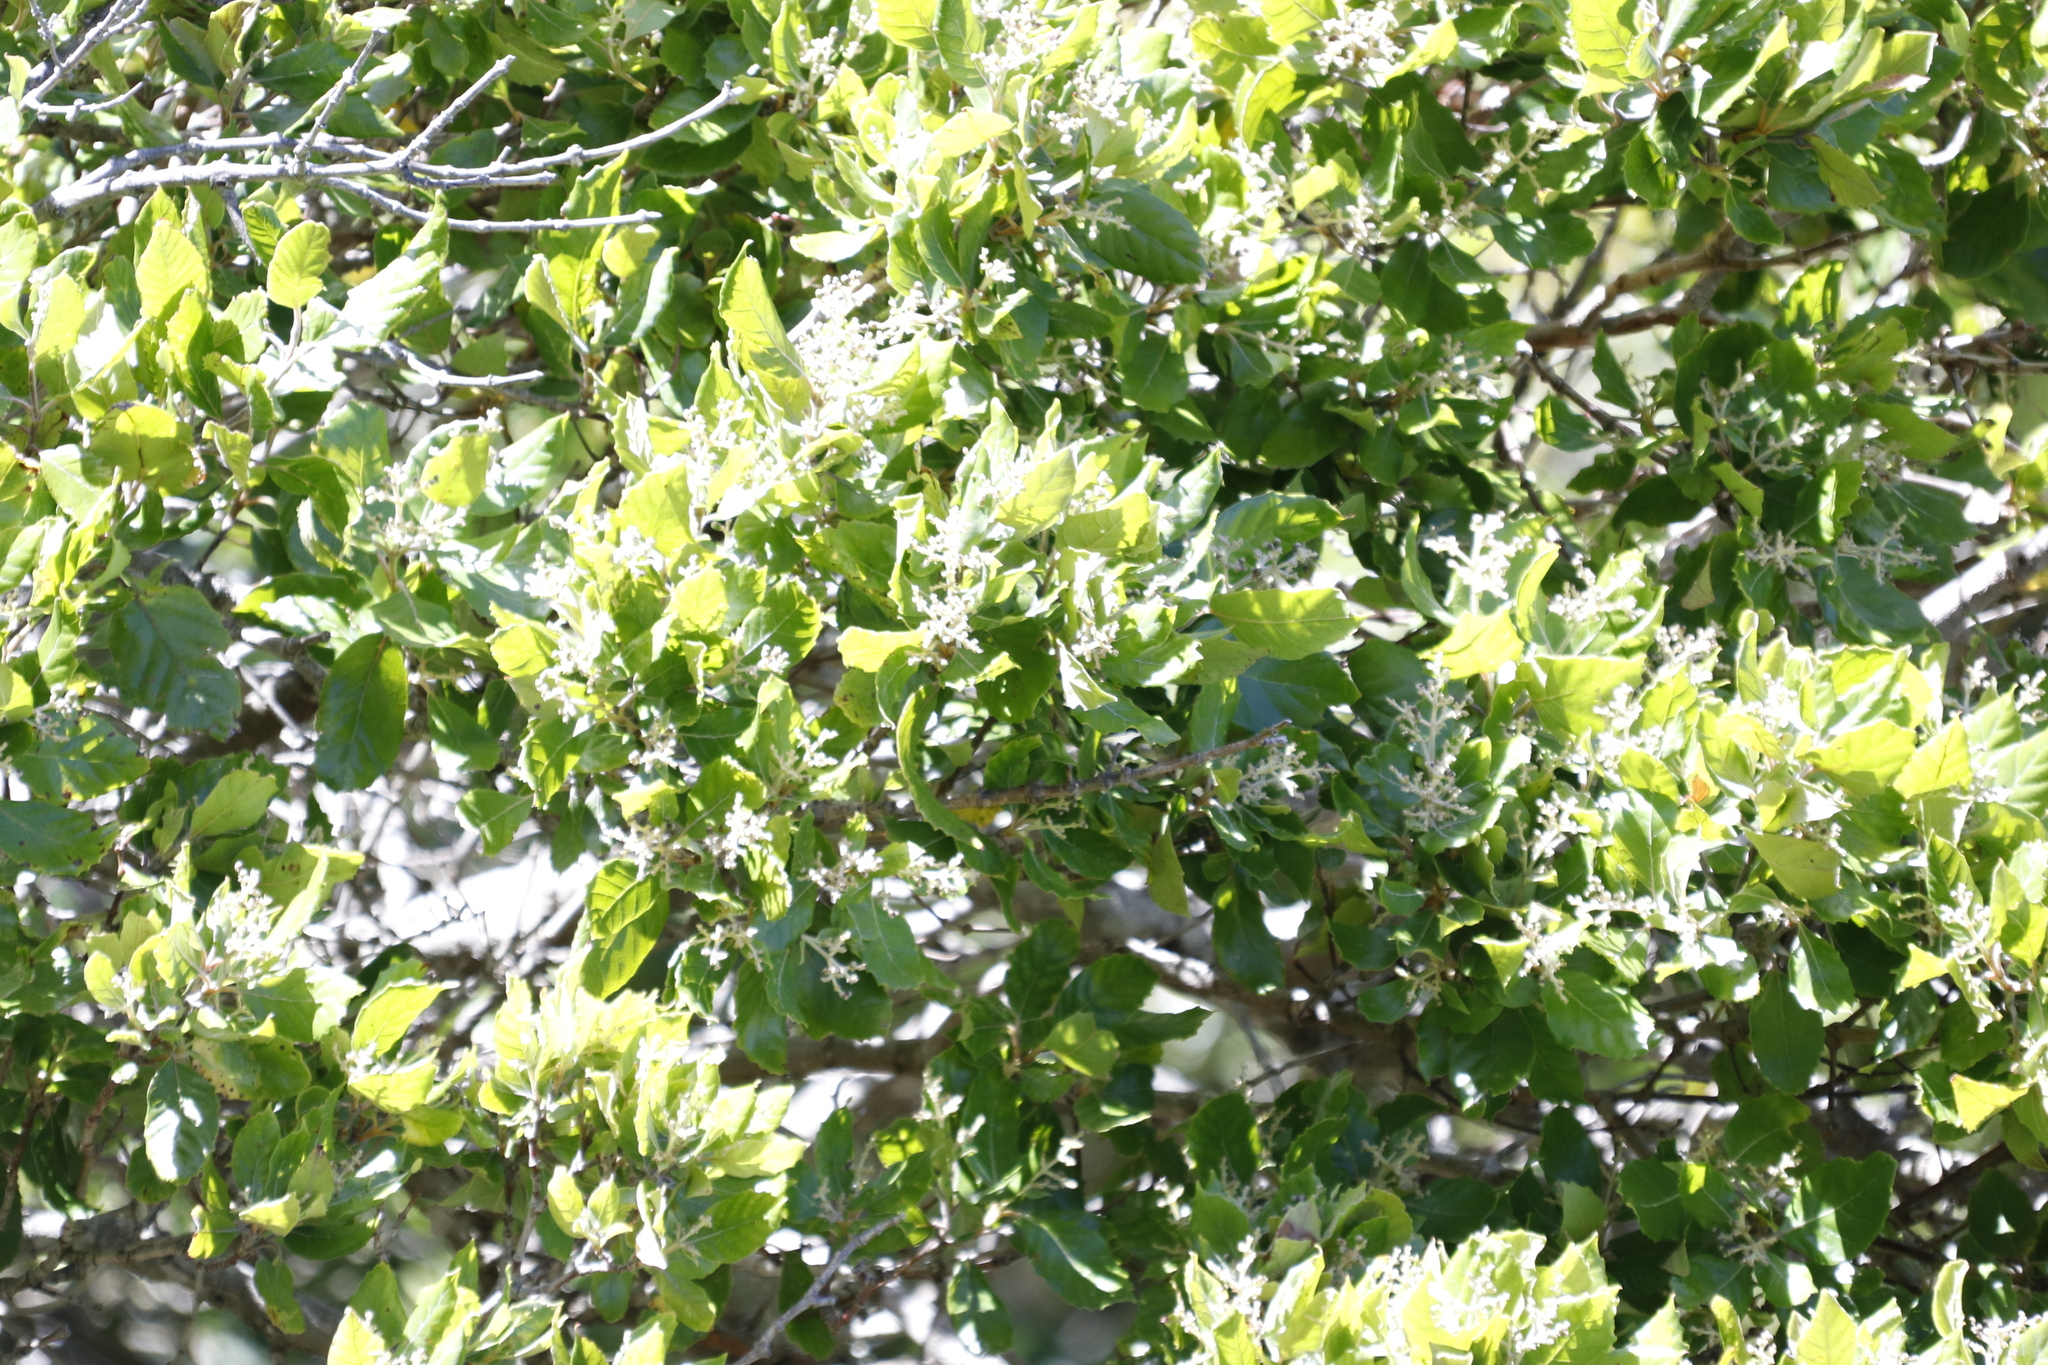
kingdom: Plantae
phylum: Tracheophyta
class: Magnoliopsida
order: Cornales
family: Curtisiaceae
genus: Curtisia
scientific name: Curtisia dentata
